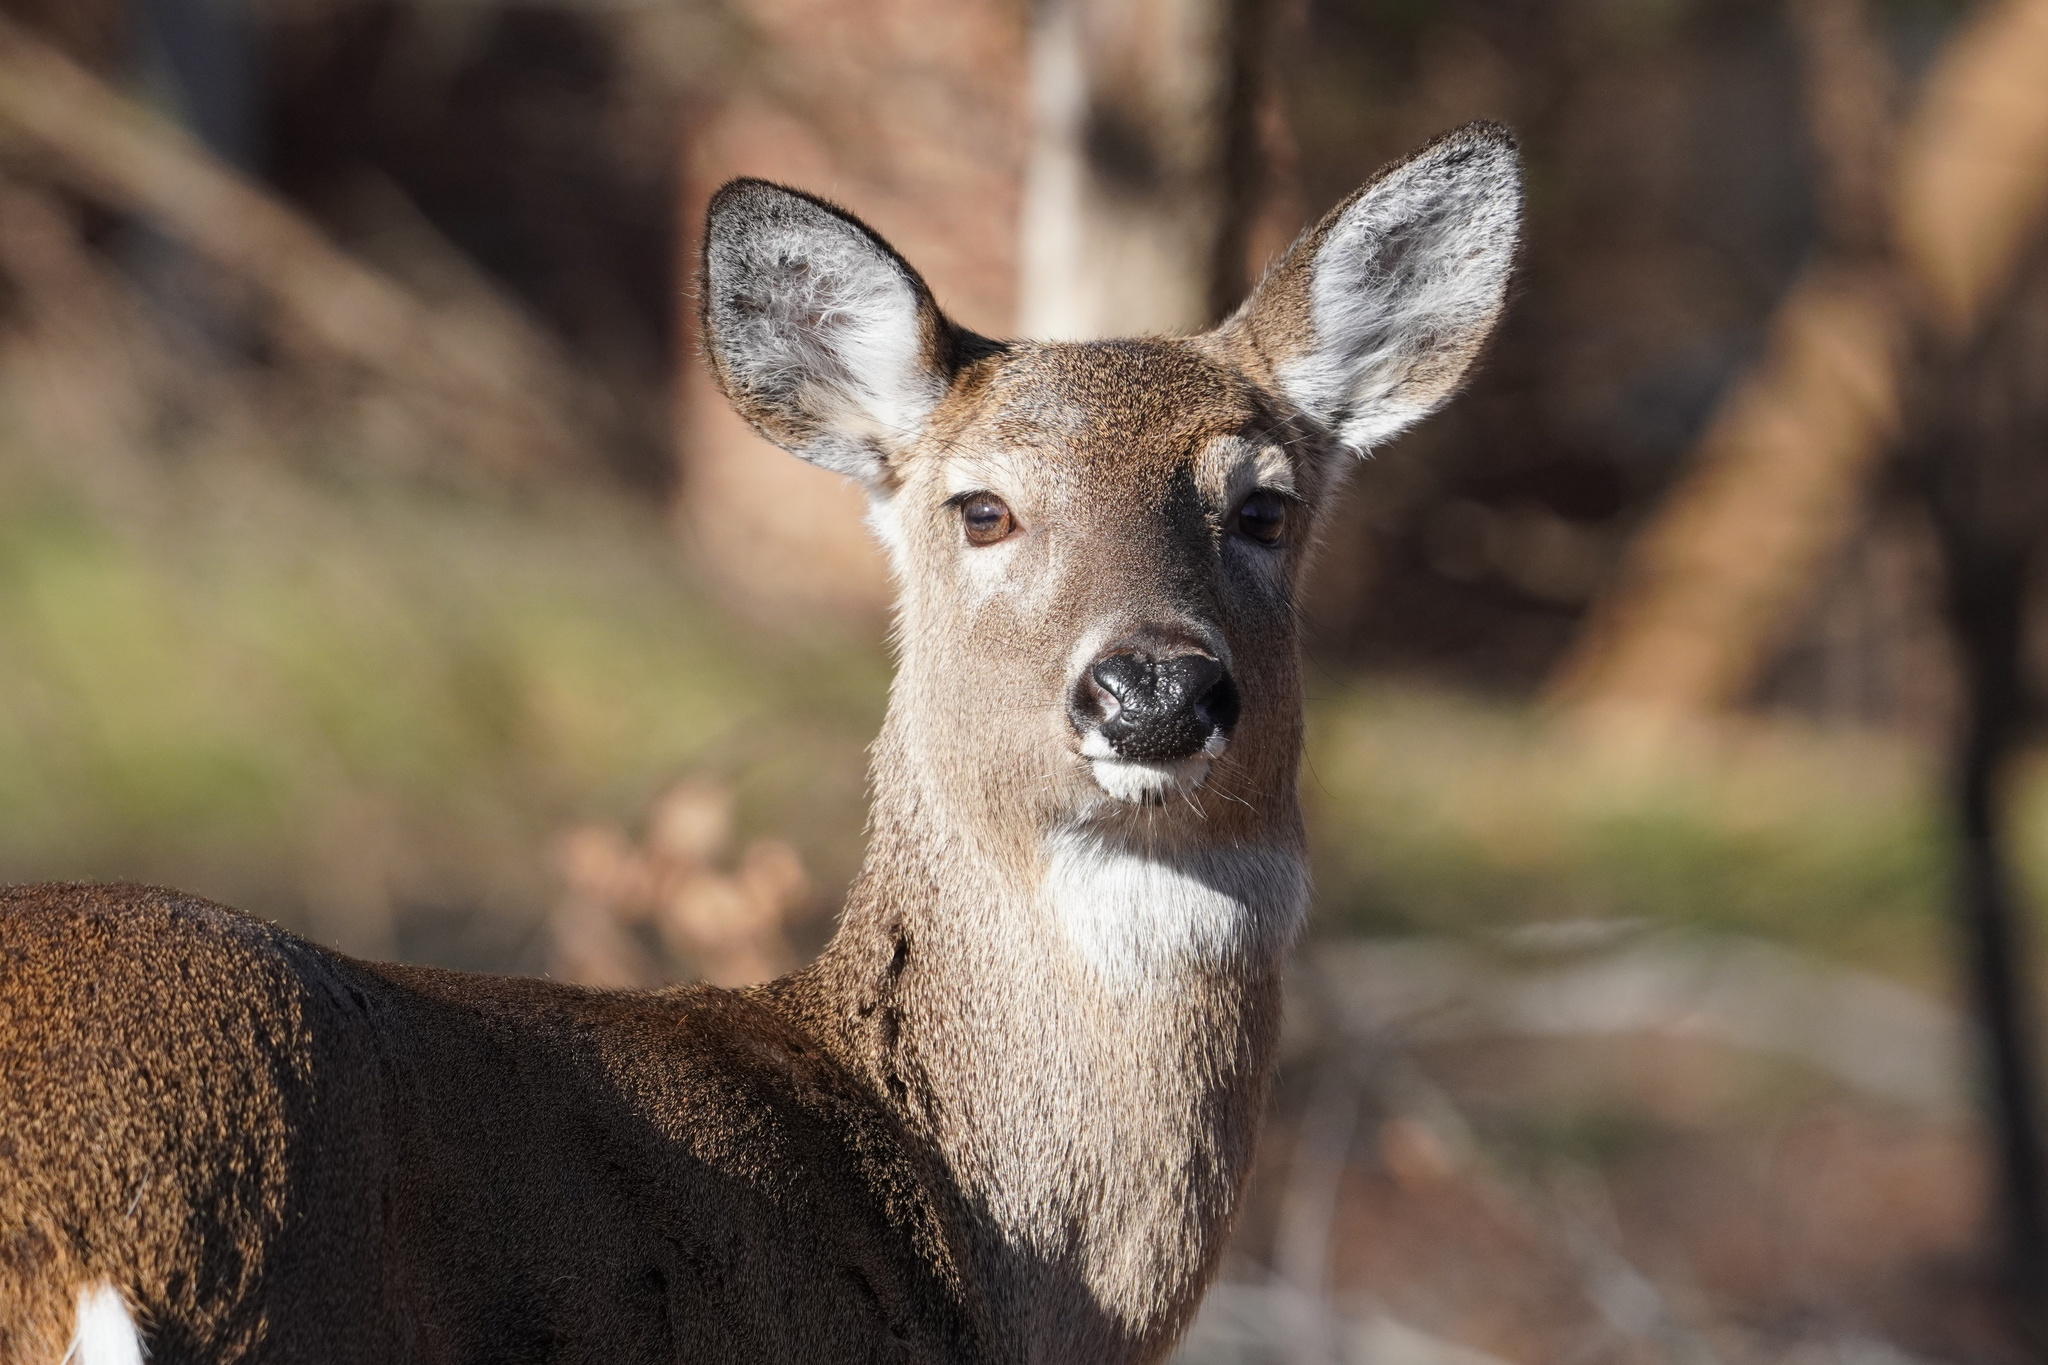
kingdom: Animalia
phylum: Chordata
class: Mammalia
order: Artiodactyla
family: Cervidae
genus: Odocoileus
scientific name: Odocoileus virginianus
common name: White-tailed deer
